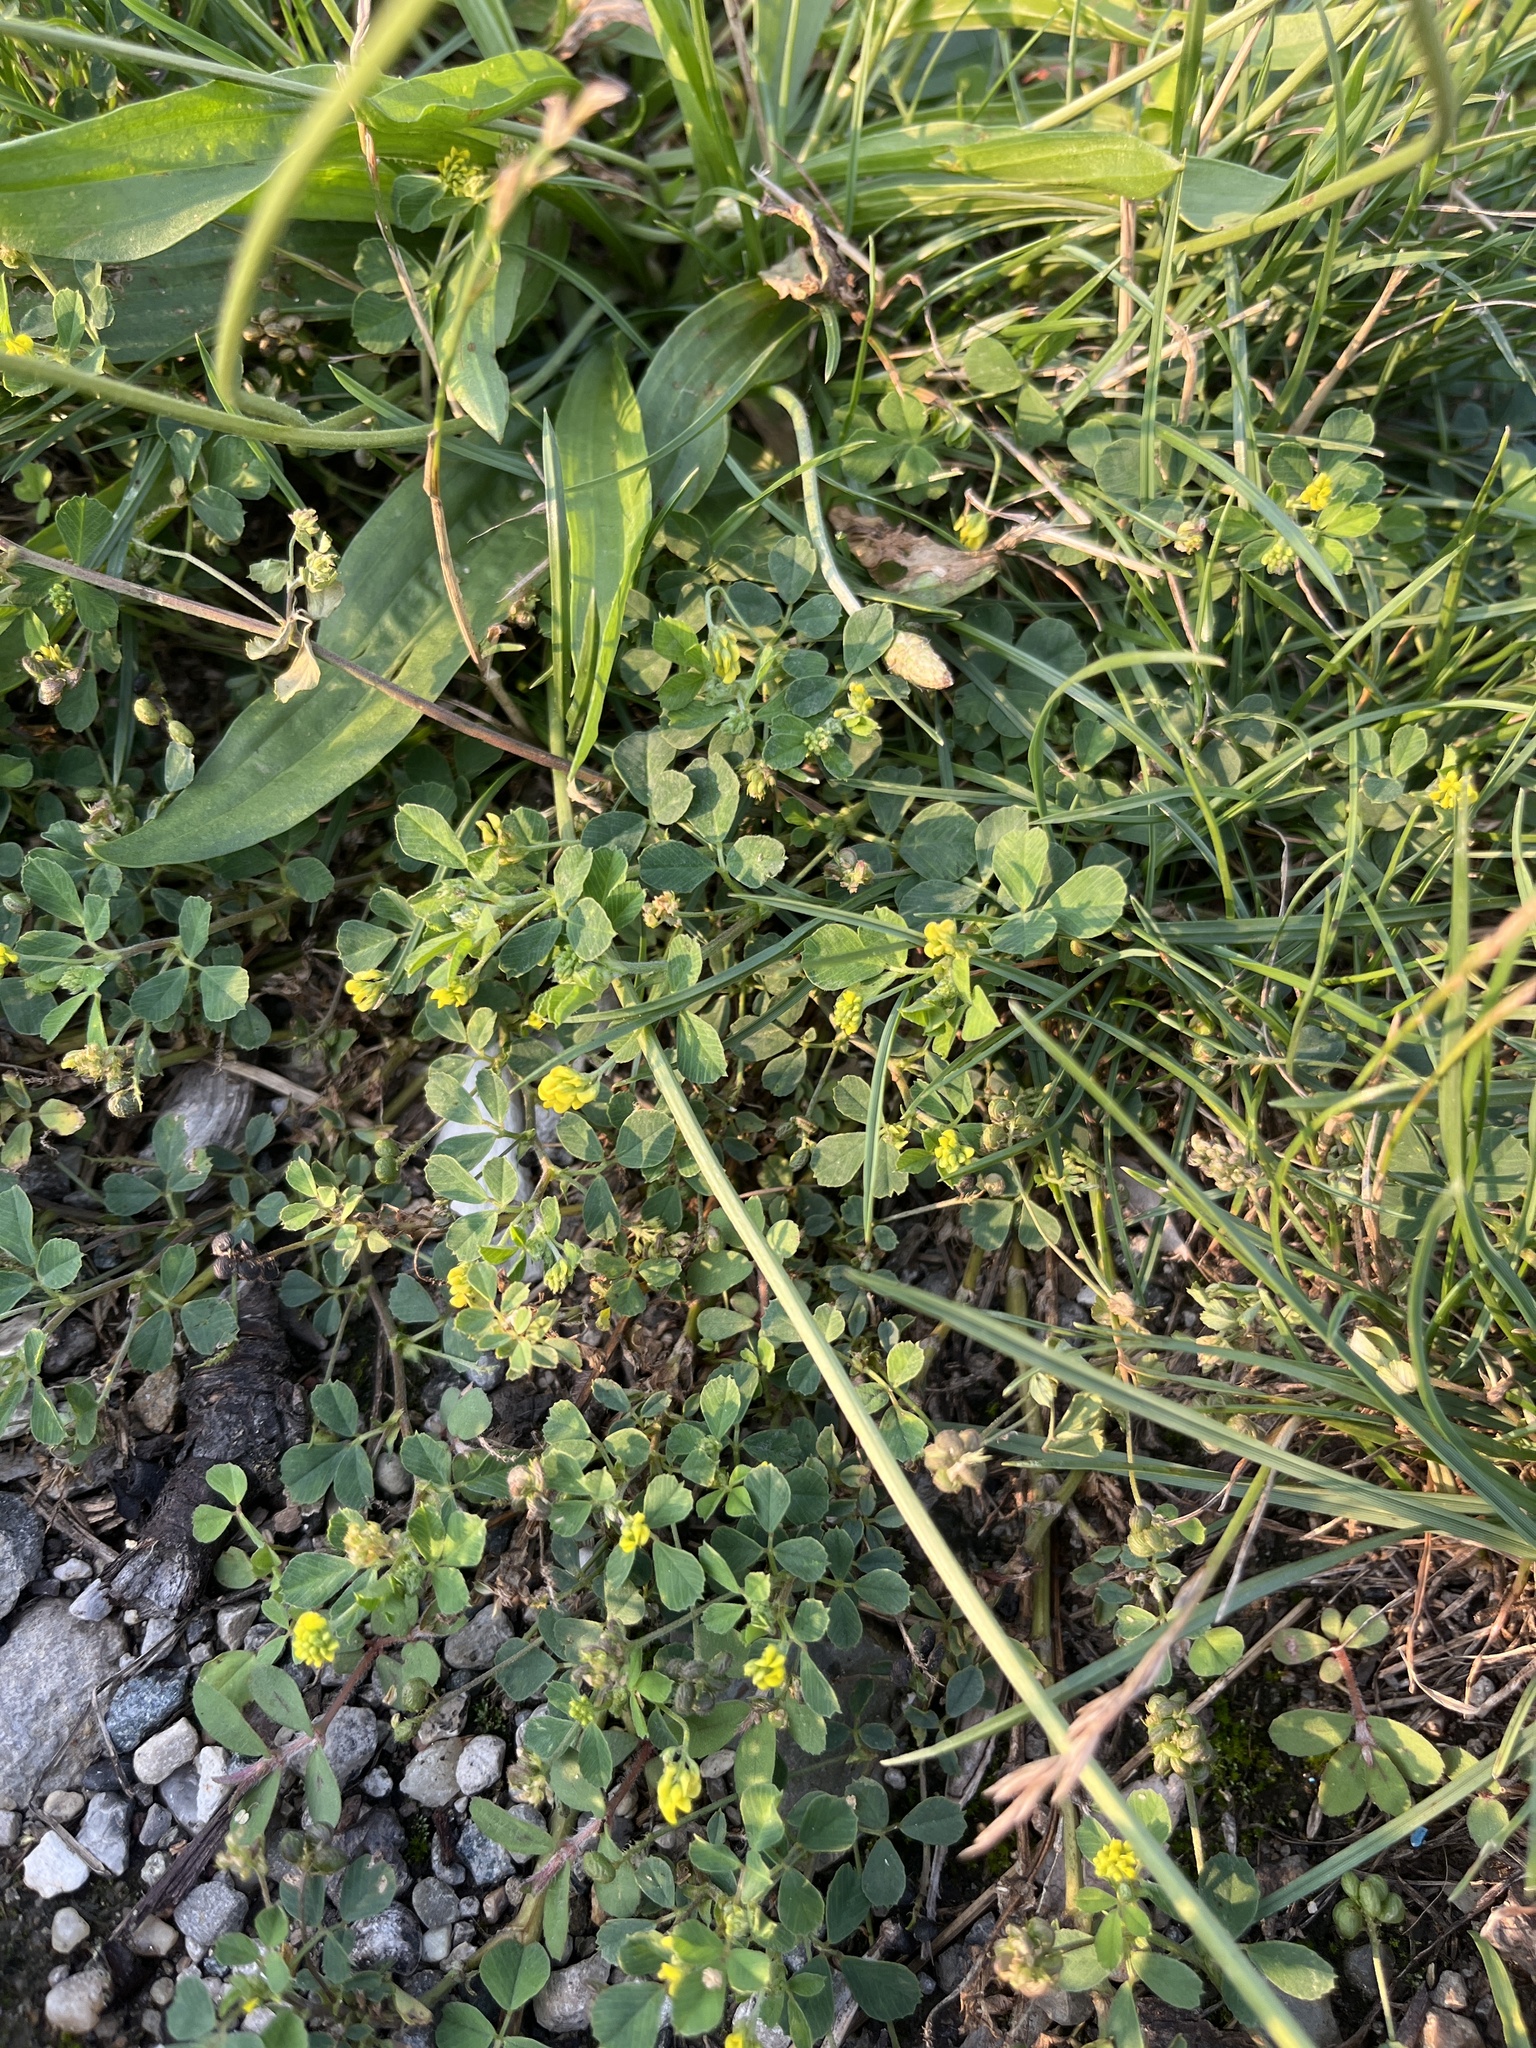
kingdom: Plantae
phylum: Tracheophyta
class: Magnoliopsida
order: Fabales
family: Fabaceae
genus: Medicago
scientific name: Medicago lupulina
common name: Black medick
